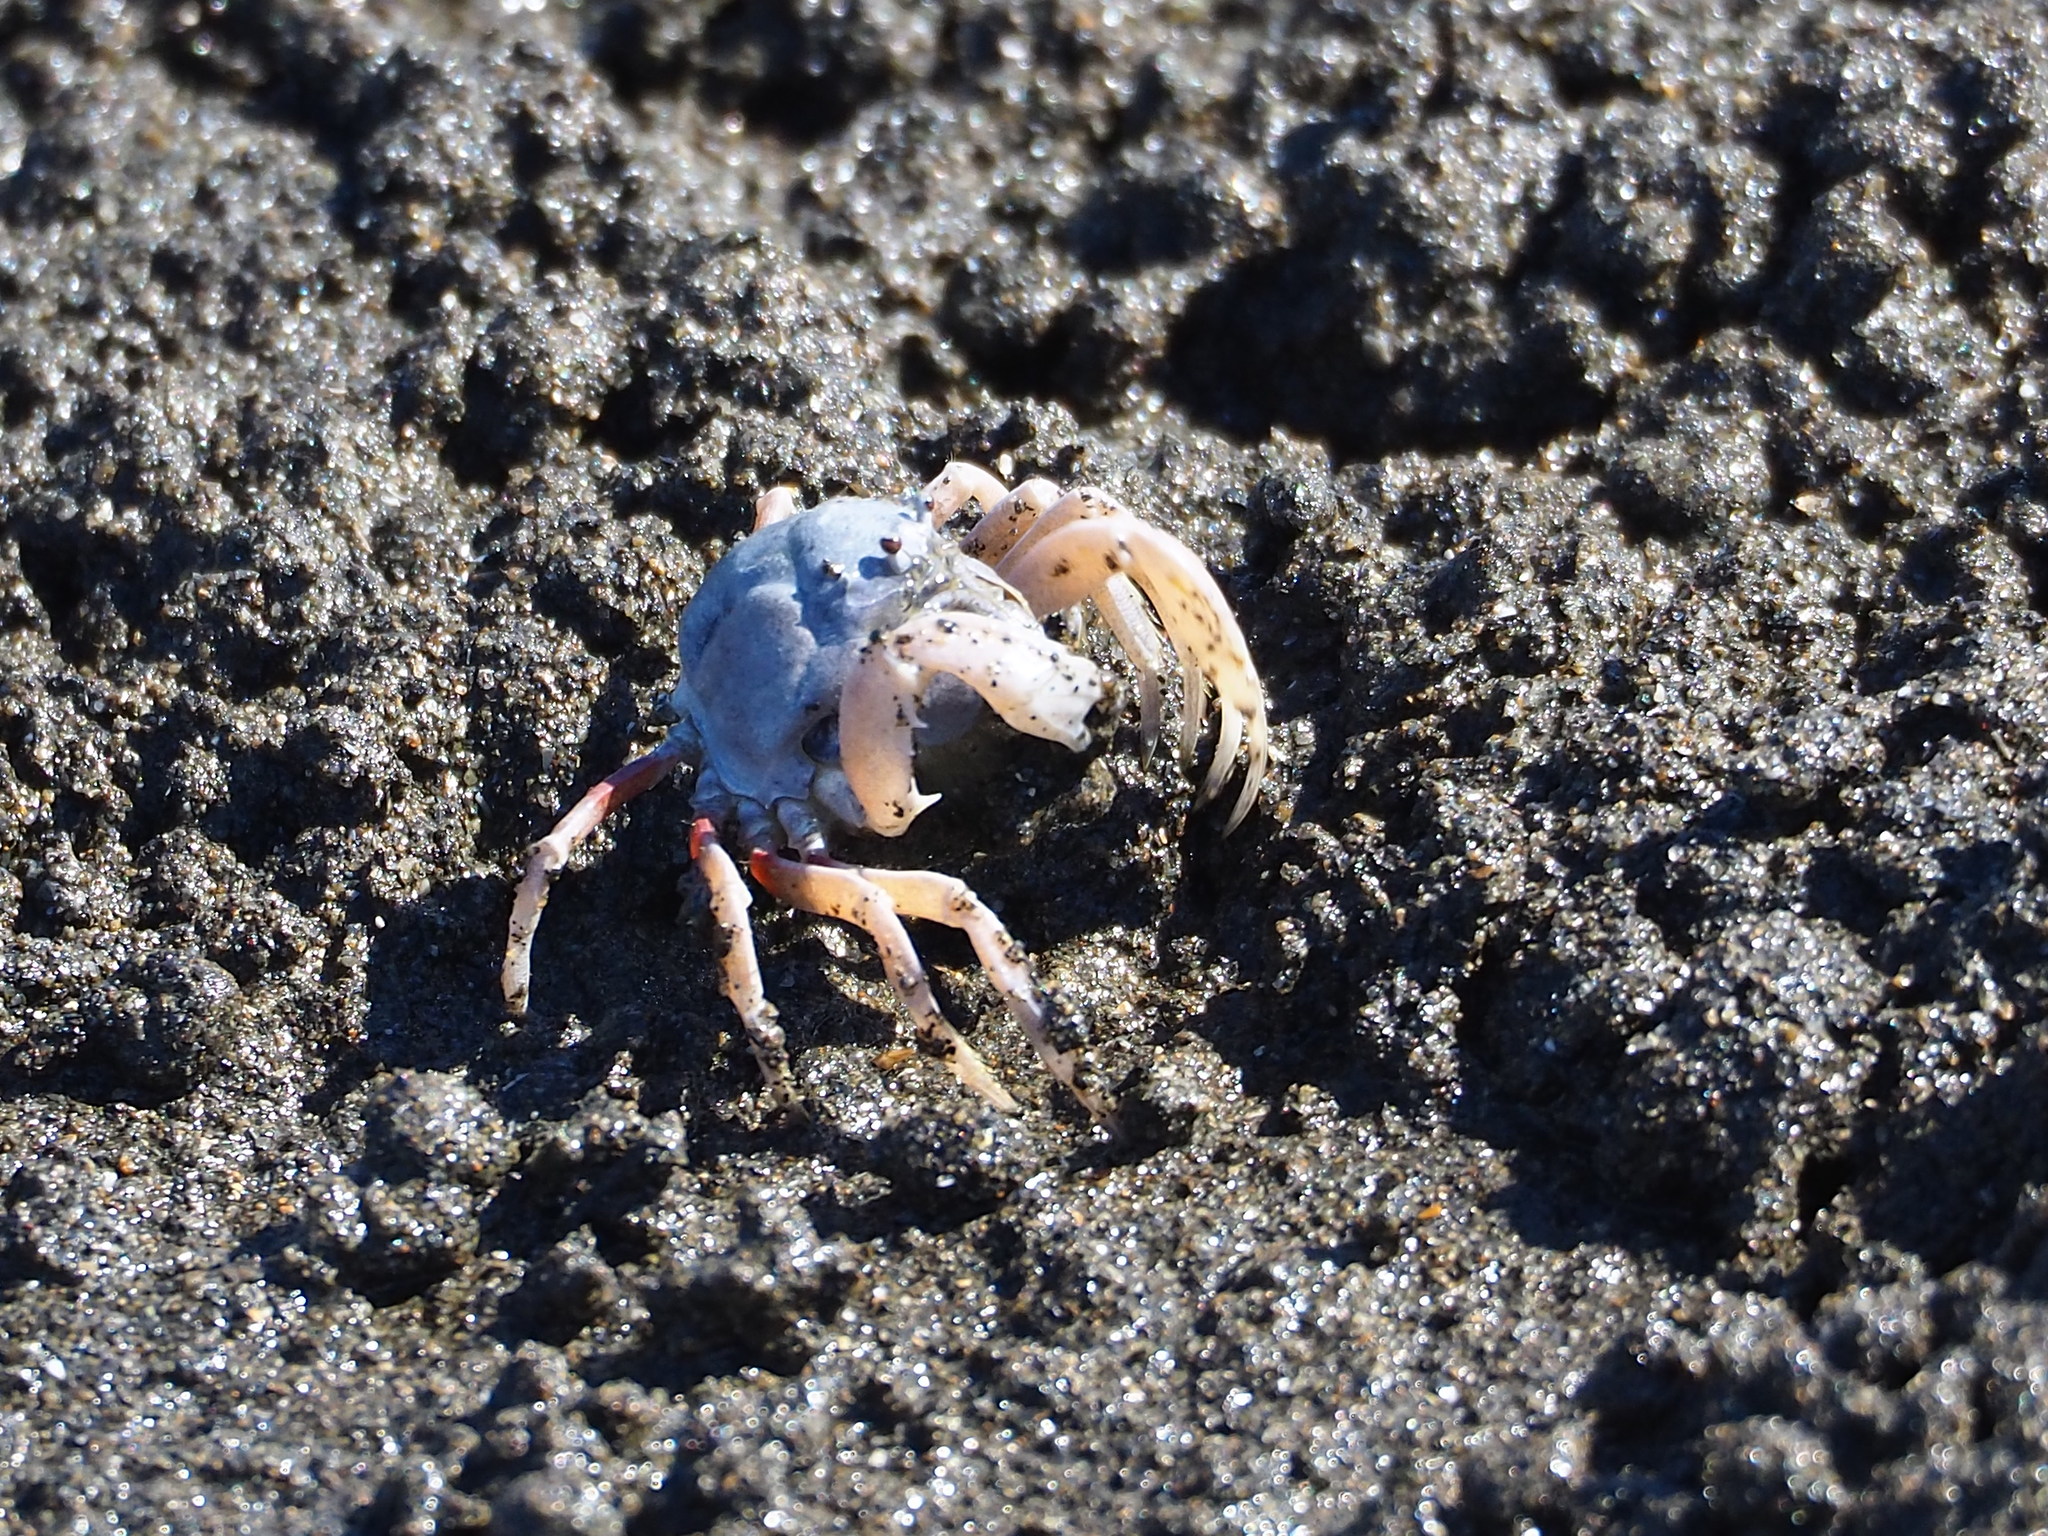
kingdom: Animalia
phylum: Arthropoda
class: Malacostraca
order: Decapoda
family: Mictyridae
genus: Mictyris
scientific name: Mictyris brevidactylus
